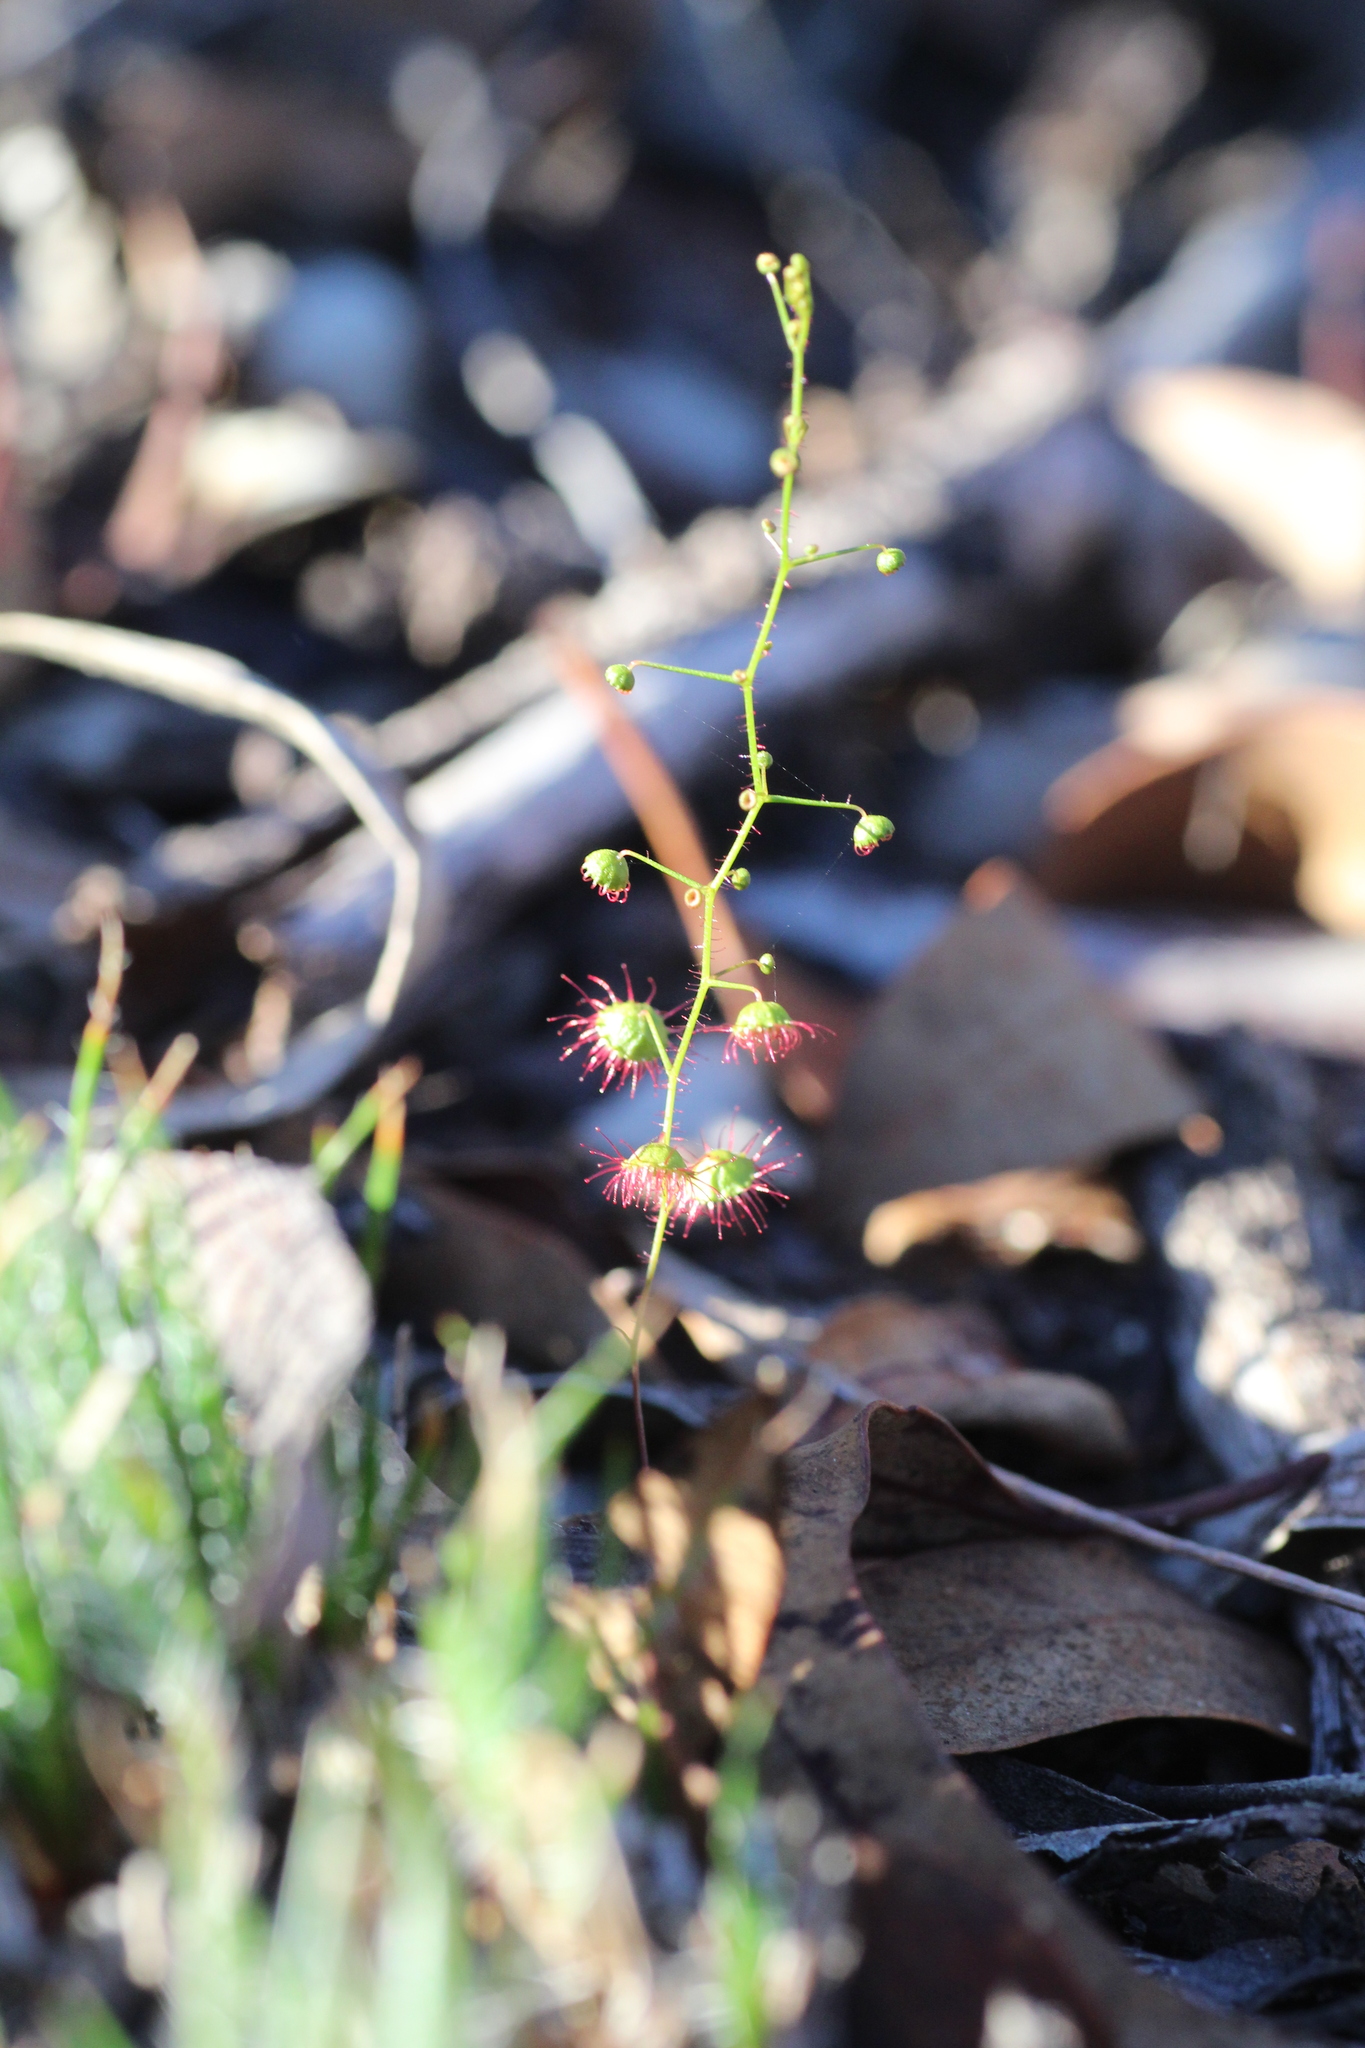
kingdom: Plantae
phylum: Tracheophyta
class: Magnoliopsida
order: Caryophyllales
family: Droseraceae
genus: Drosera
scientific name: Drosera macrantha
